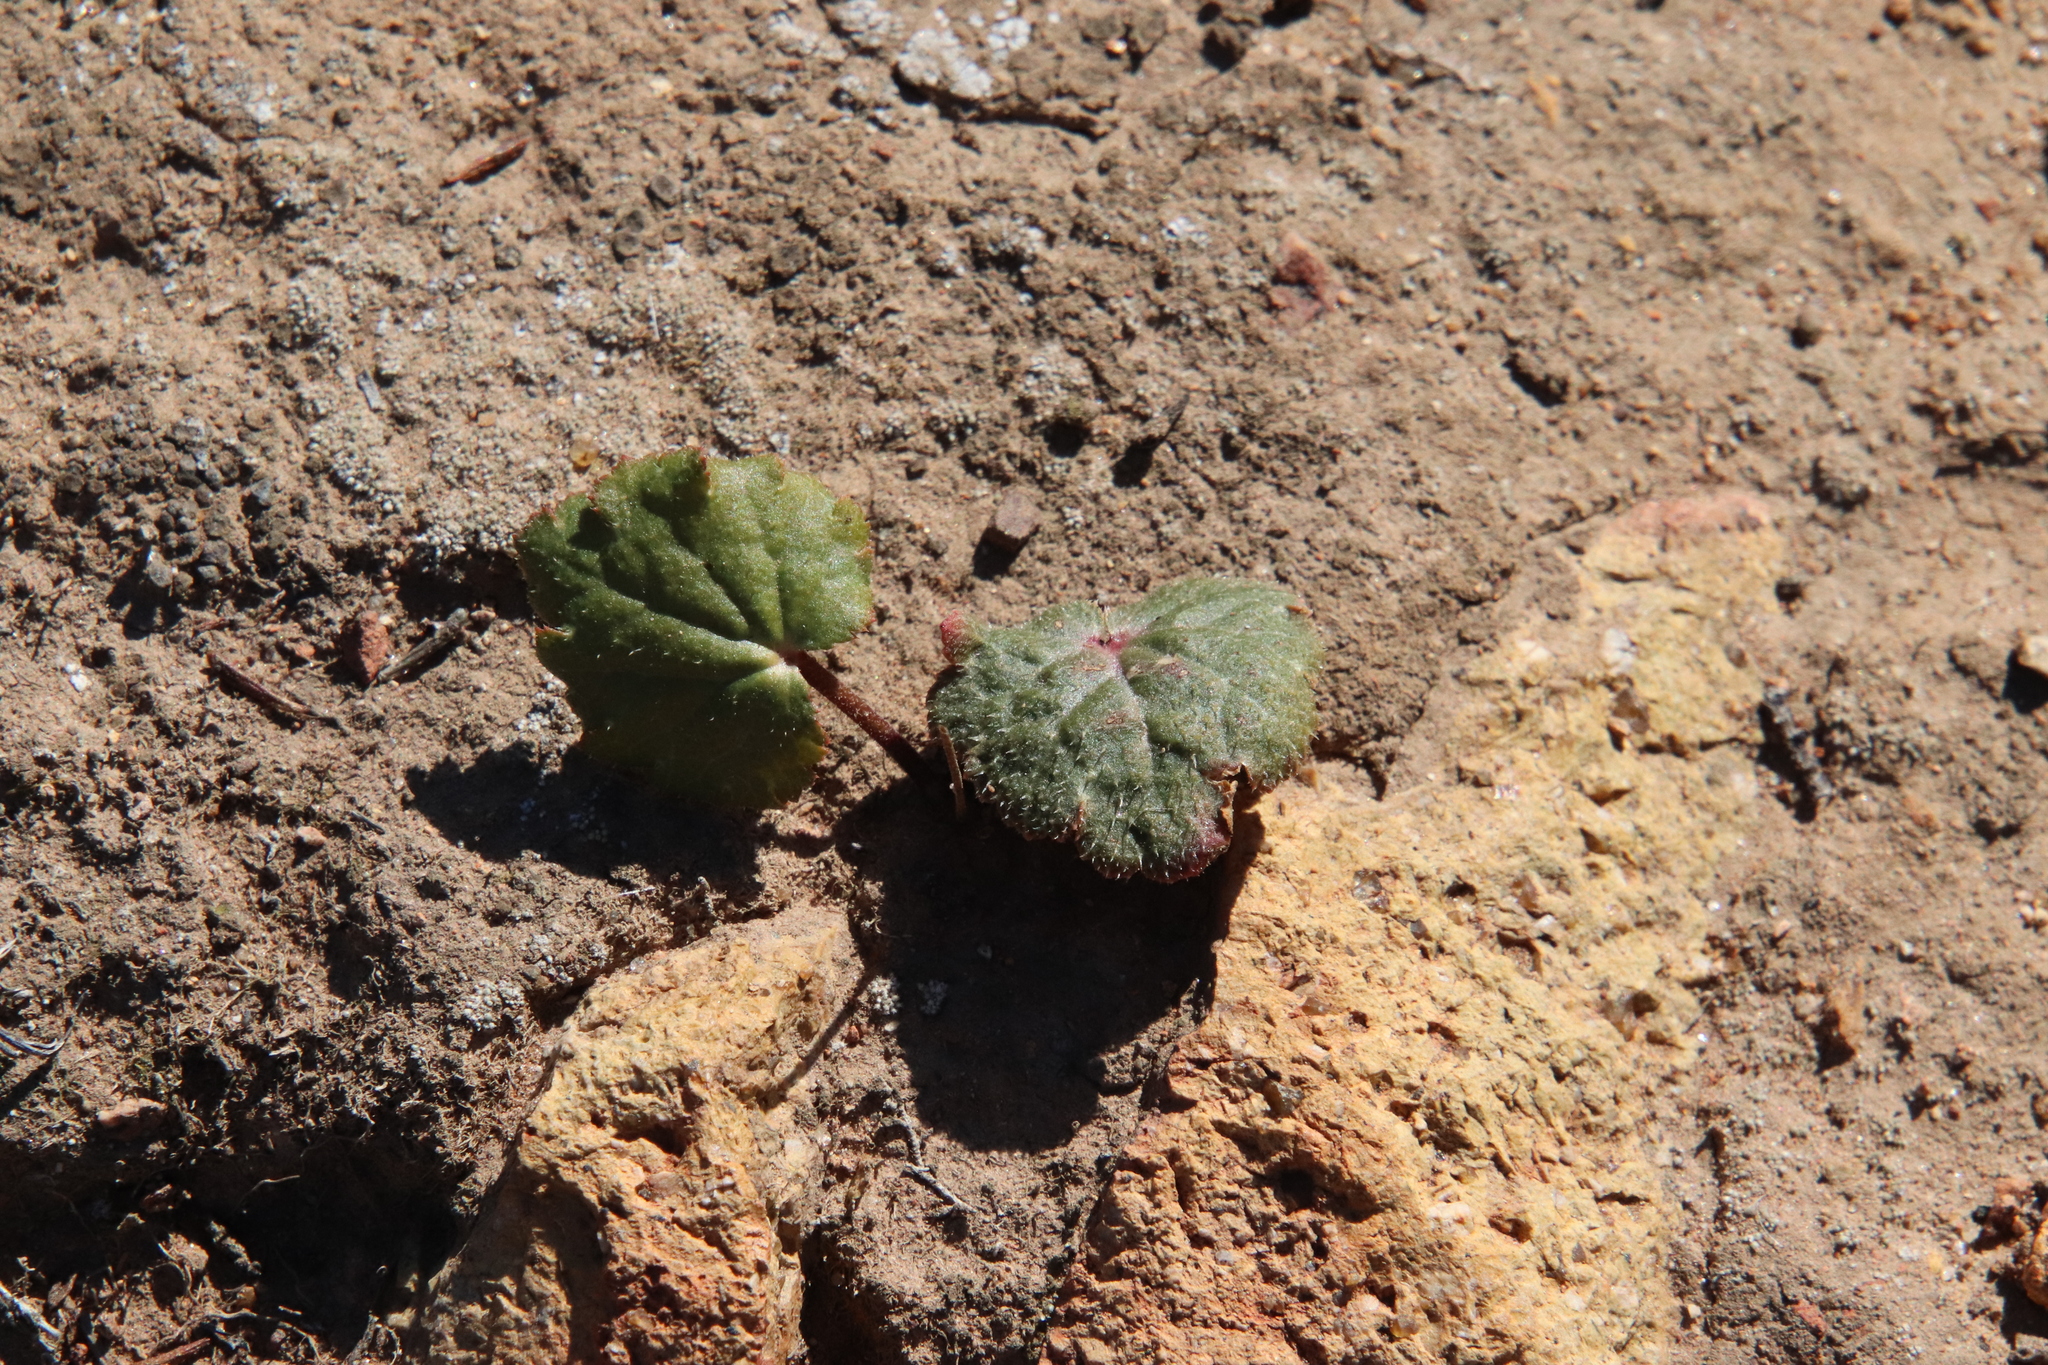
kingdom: Plantae
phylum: Tracheophyta
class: Magnoliopsida
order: Saxifragales
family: Saxifragaceae
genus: Jepsonia
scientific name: Jepsonia parryi
